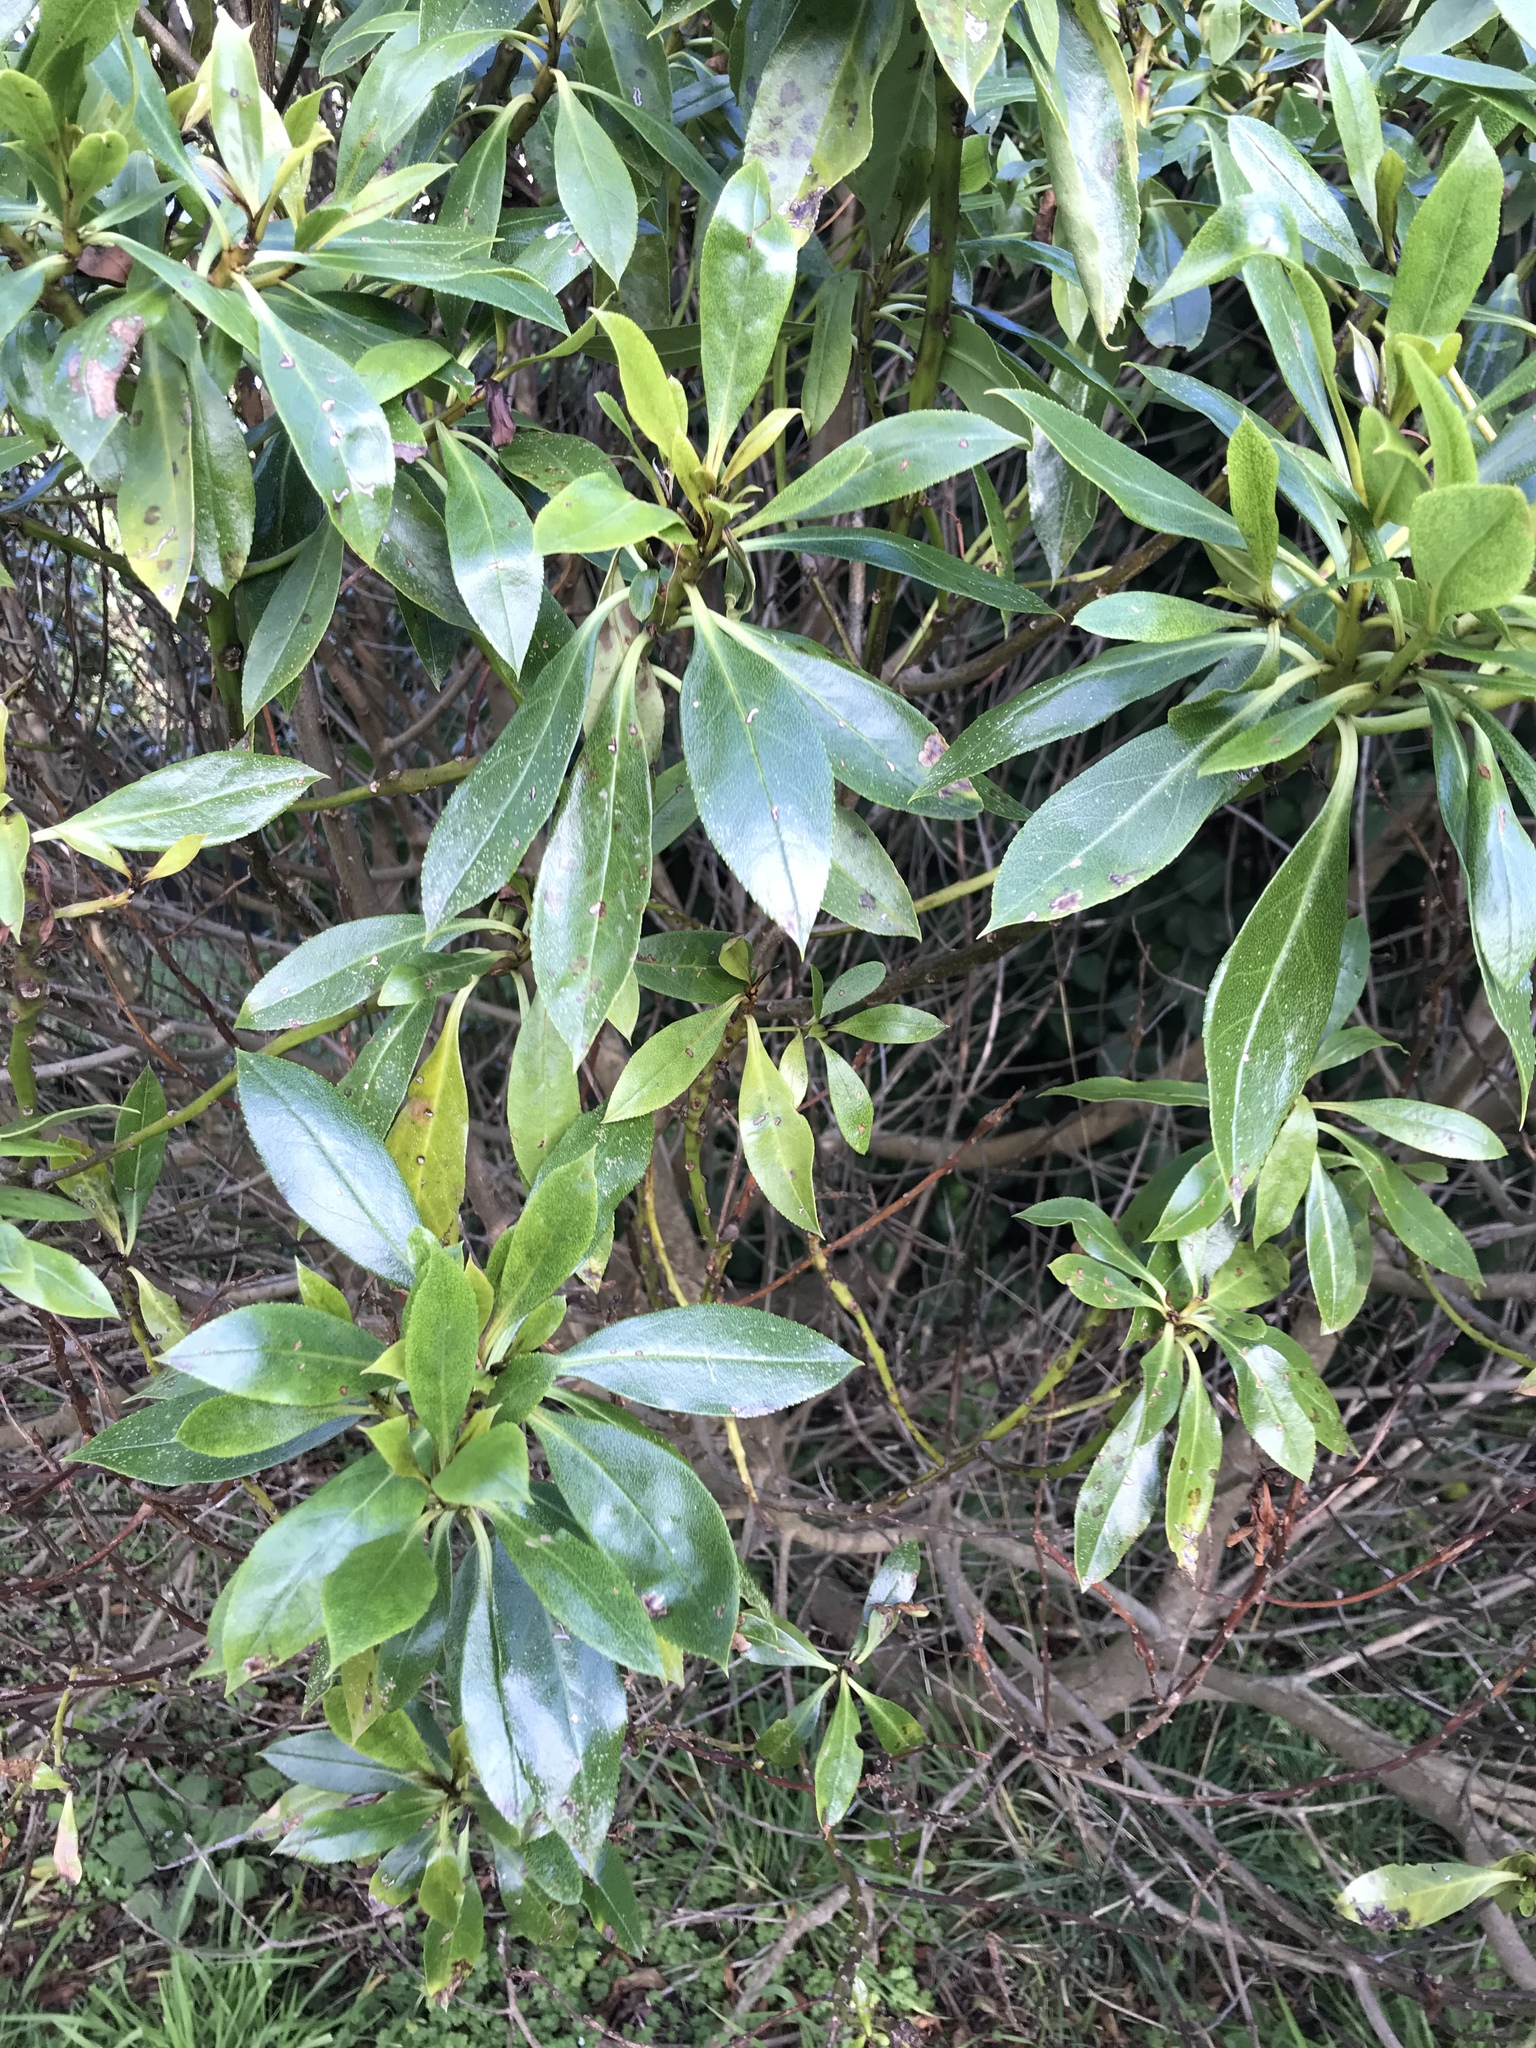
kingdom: Plantae
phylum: Tracheophyta
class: Magnoliopsida
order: Lamiales
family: Scrophulariaceae
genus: Myoporum
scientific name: Myoporum laetum
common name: Ngaio tree
